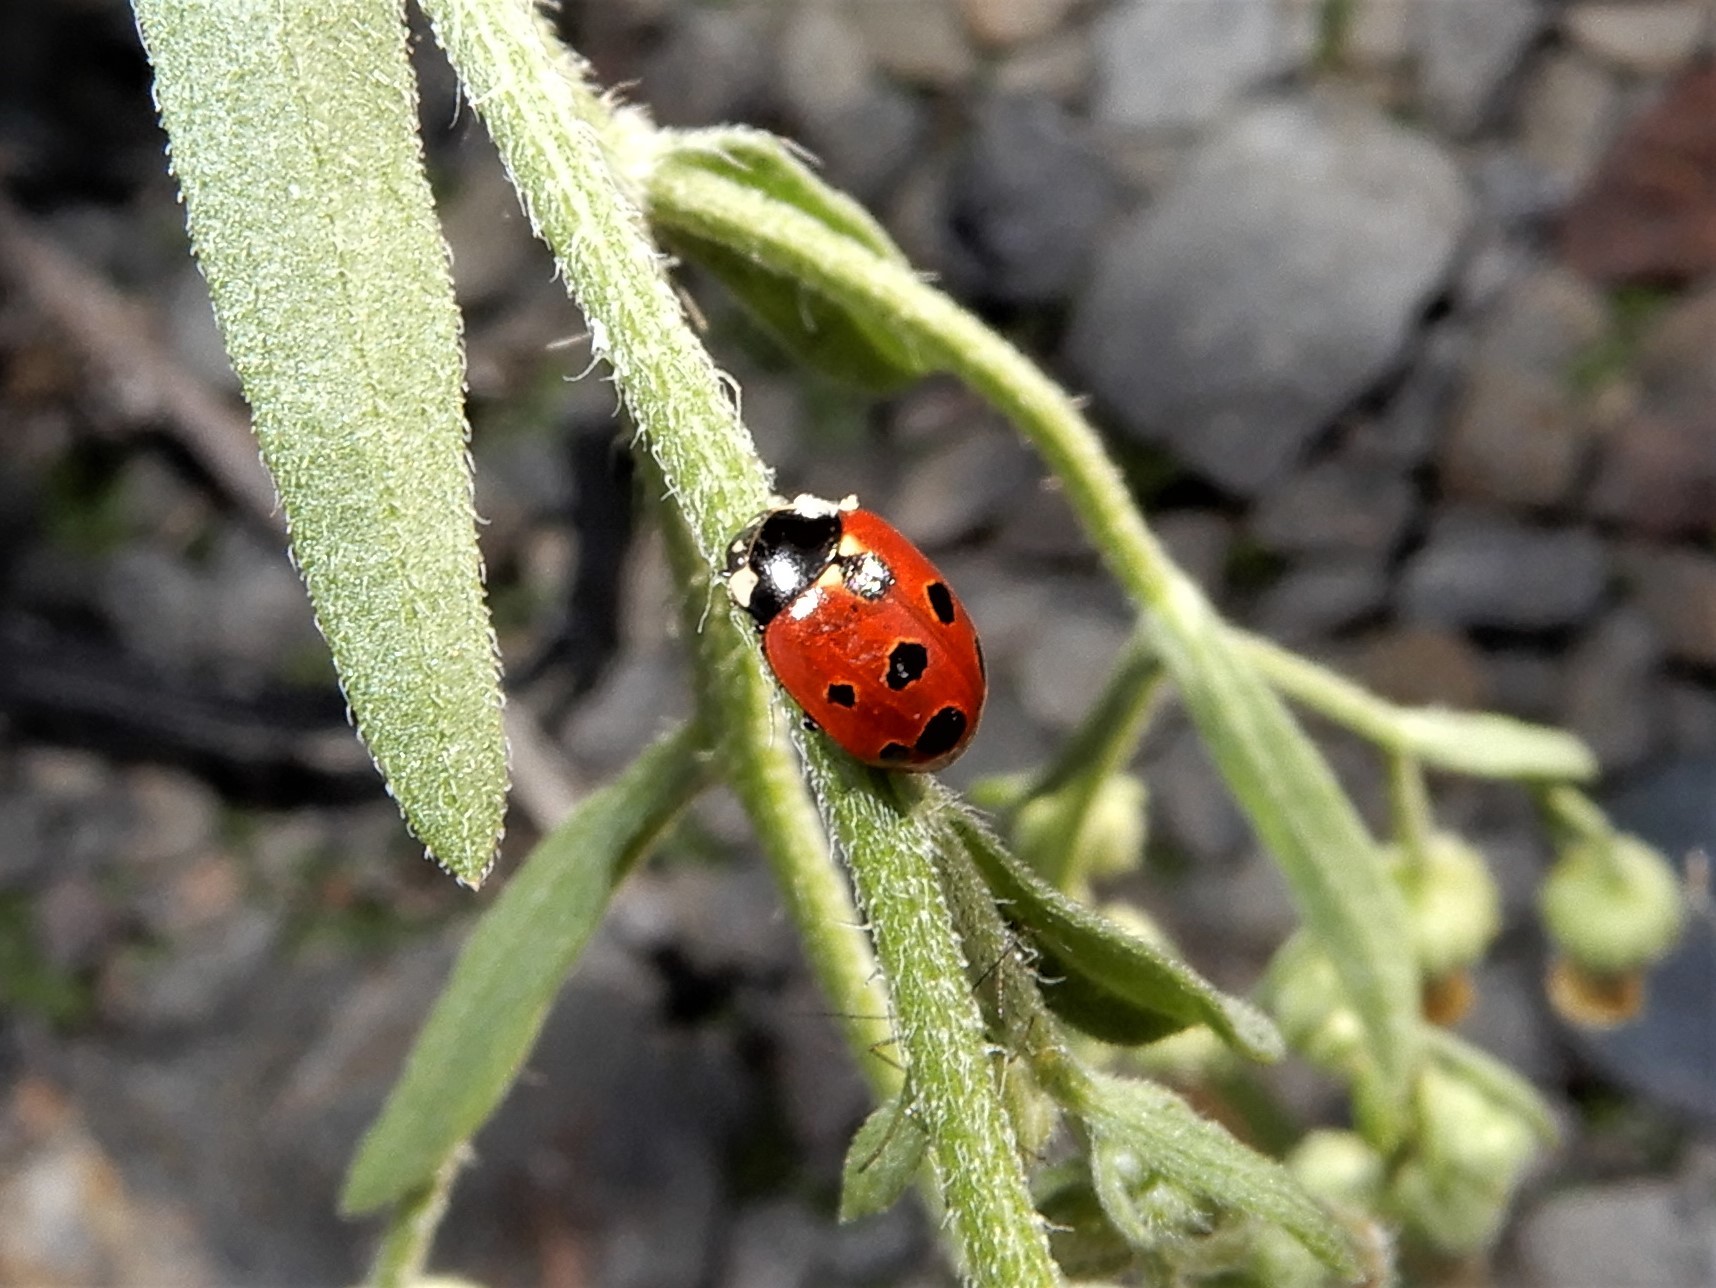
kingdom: Animalia
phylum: Arthropoda
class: Insecta
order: Coleoptera
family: Coccinellidae
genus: Coccinella
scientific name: Coccinella undecimpunctata
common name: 11-spot ladybird
